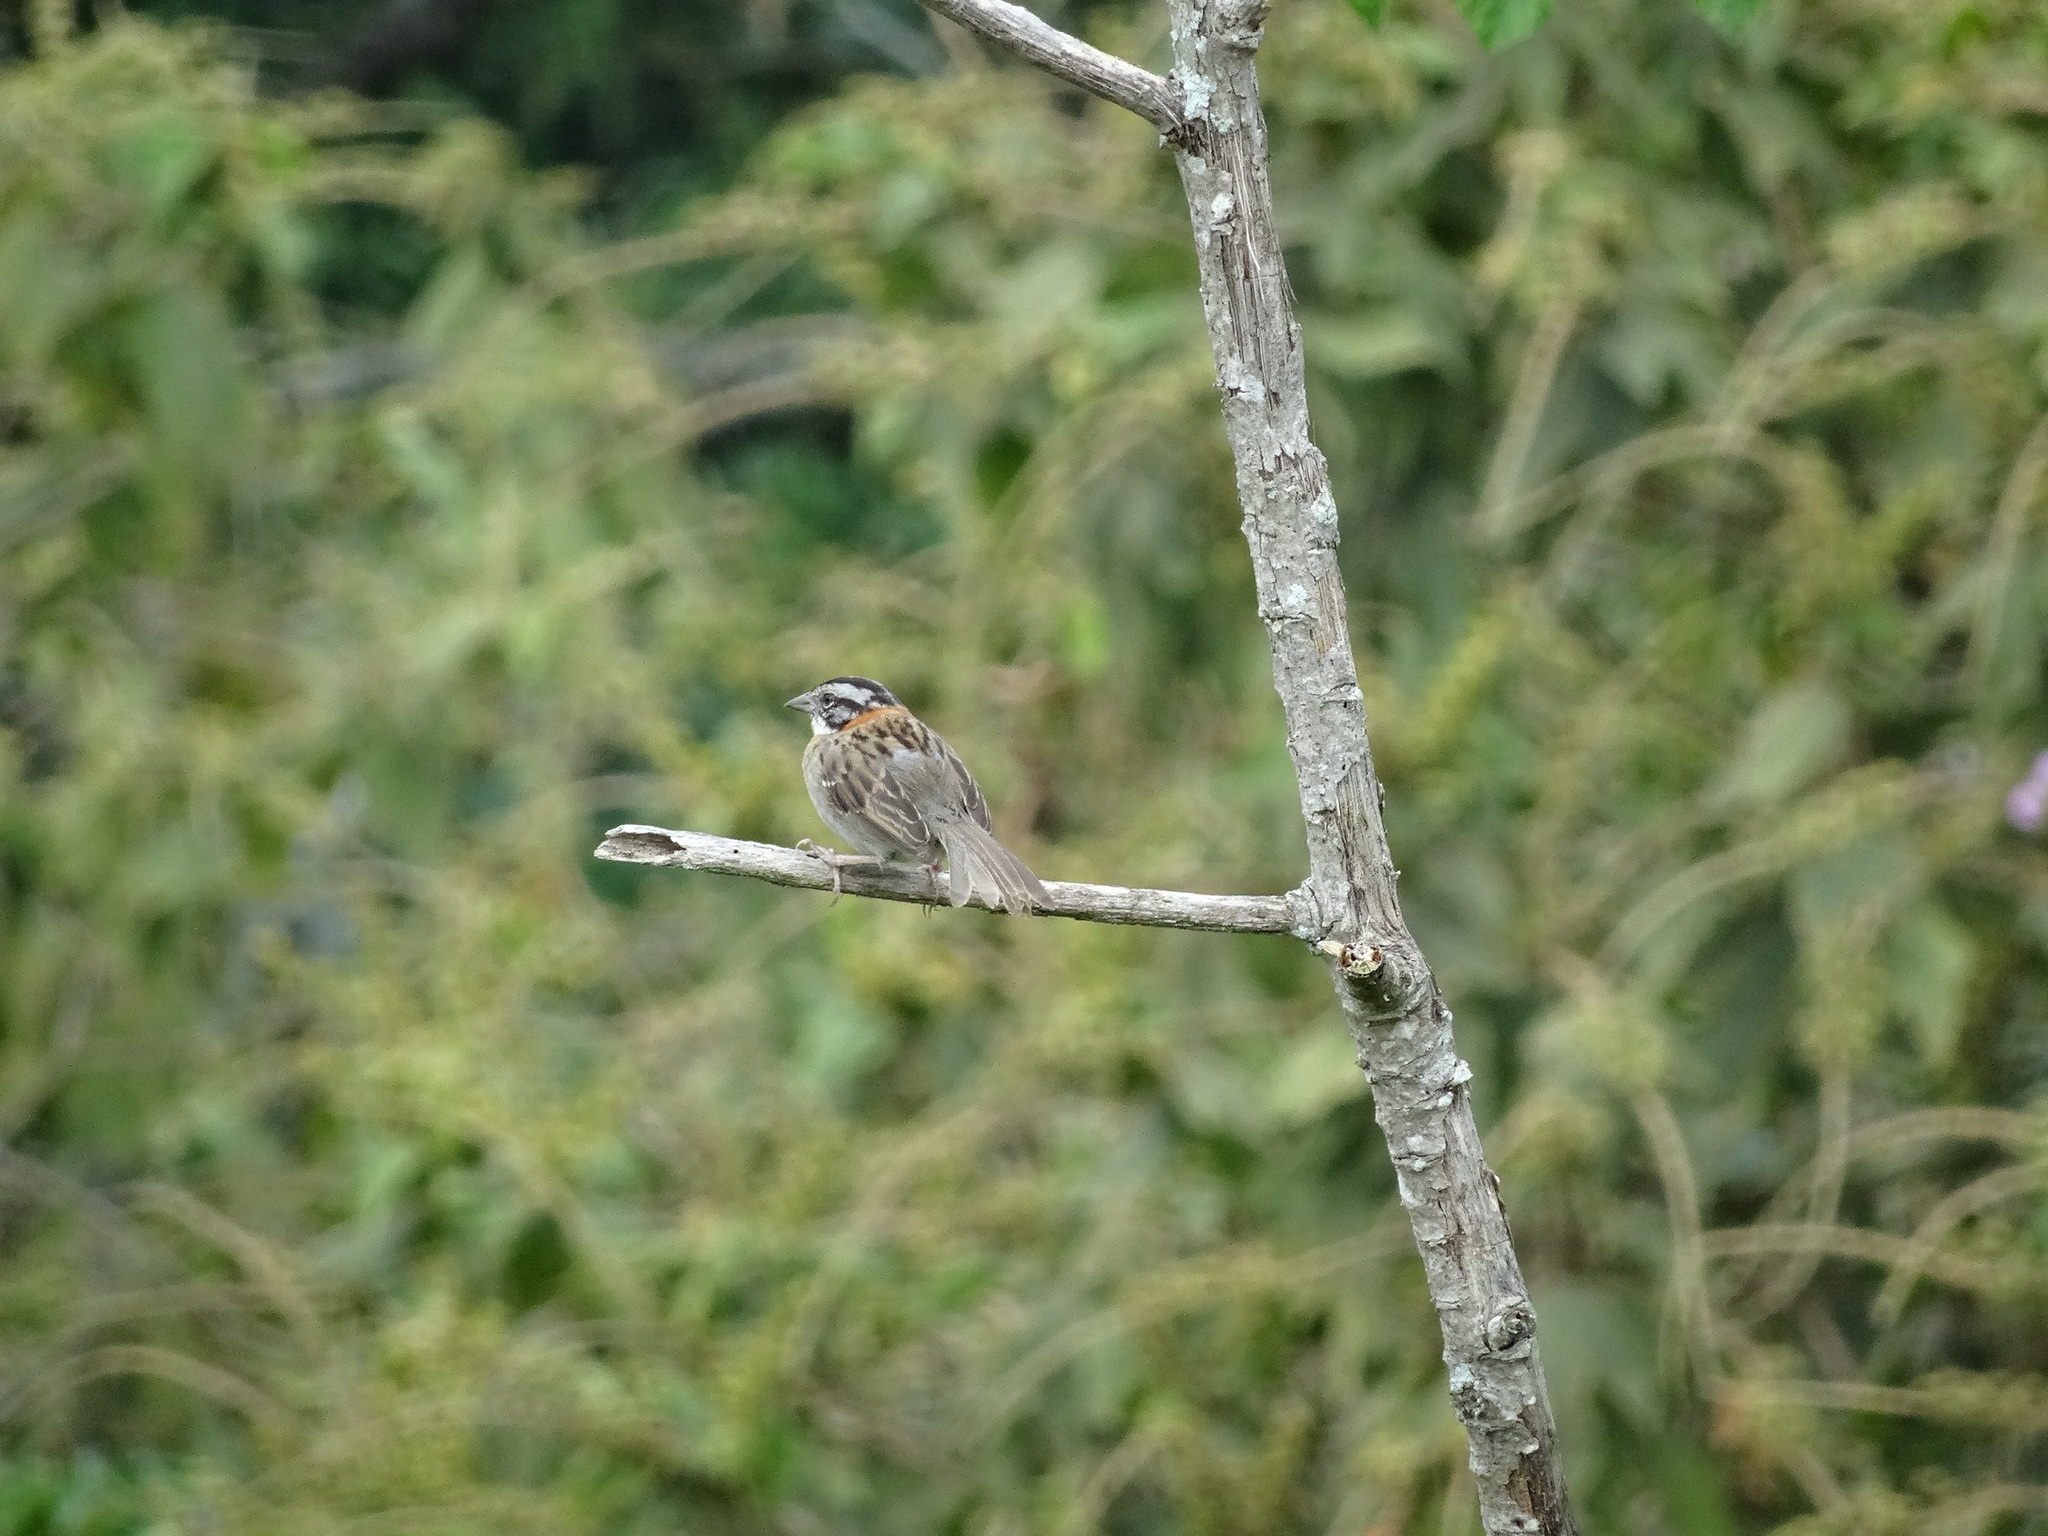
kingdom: Animalia
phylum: Chordata
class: Aves
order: Passeriformes
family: Passerellidae
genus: Zonotrichia
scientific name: Zonotrichia capensis
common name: Rufous-collared sparrow
